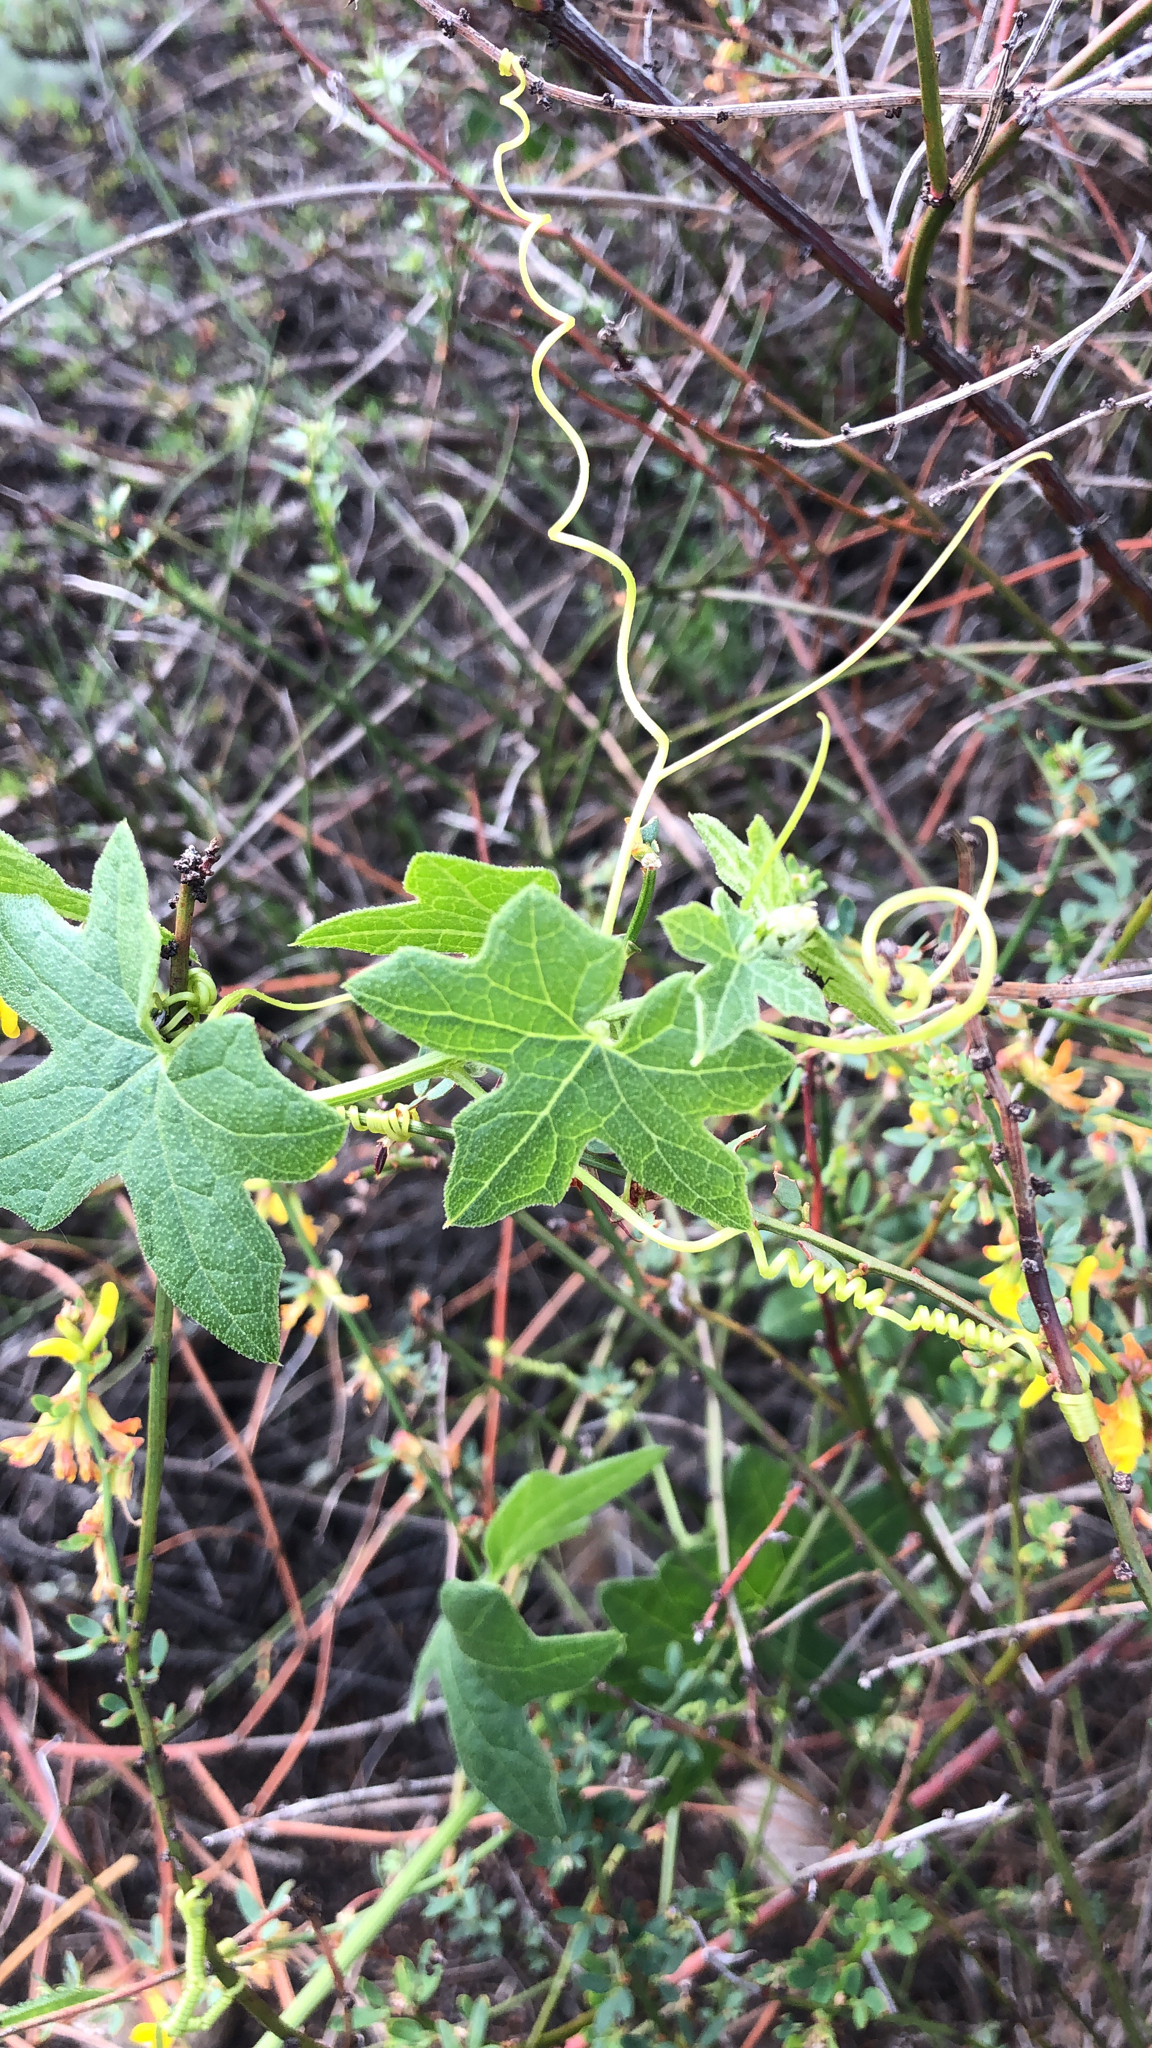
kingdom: Plantae
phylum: Tracheophyta
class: Magnoliopsida
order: Cucurbitales
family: Cucurbitaceae
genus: Marah
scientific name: Marah macrocarpa
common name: Cucamonga manroot
